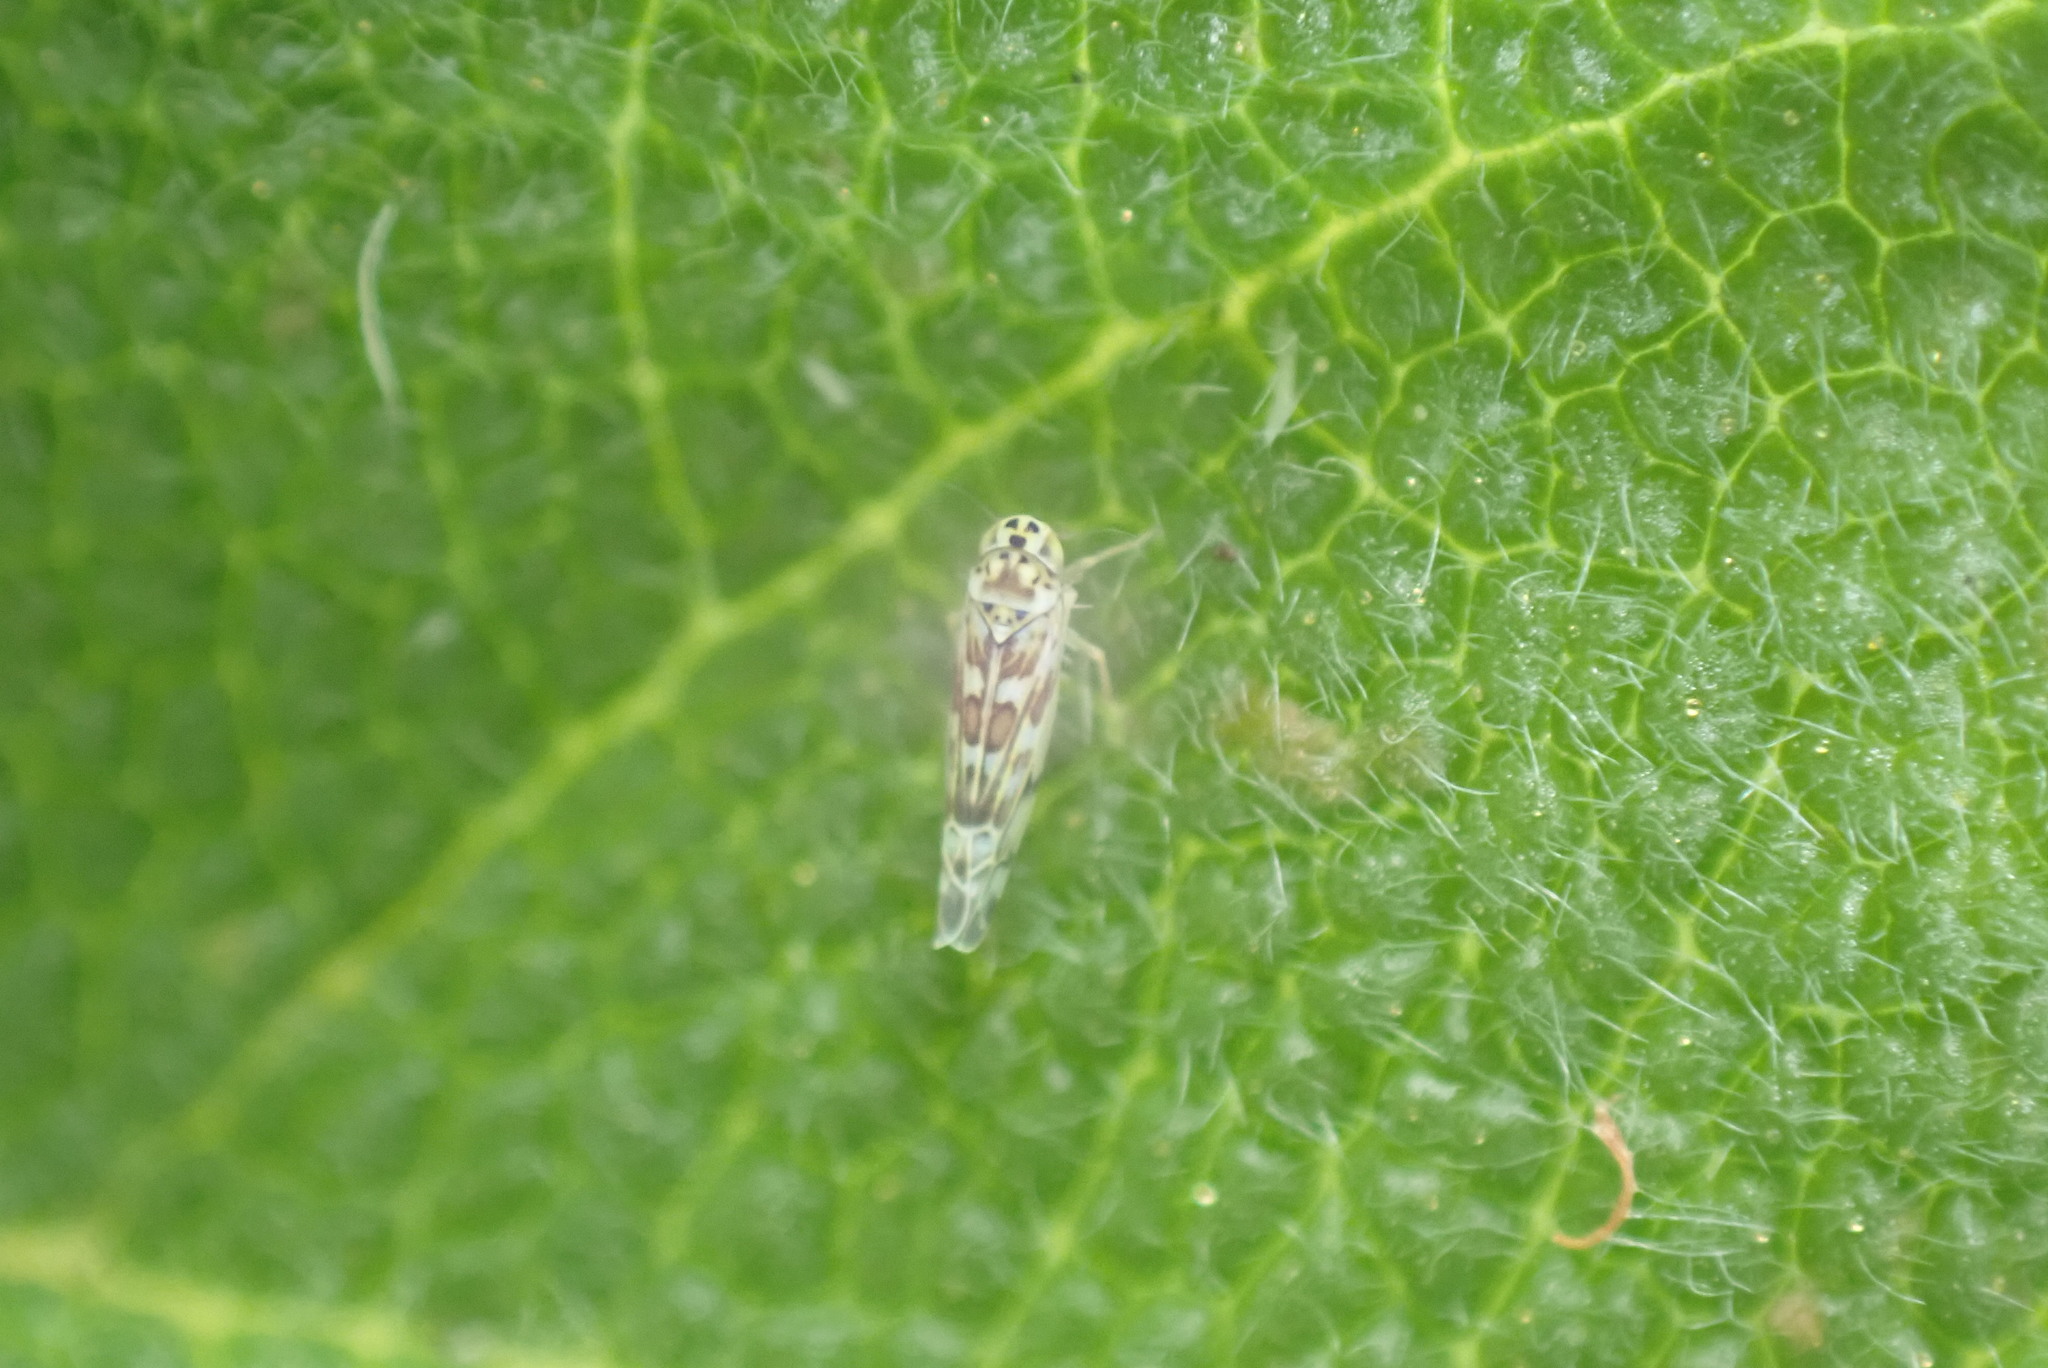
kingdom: Animalia
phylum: Arthropoda
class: Insecta
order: Hemiptera
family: Cicadellidae
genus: Eupteryx
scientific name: Eupteryx melissae
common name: Herb leafhopper
